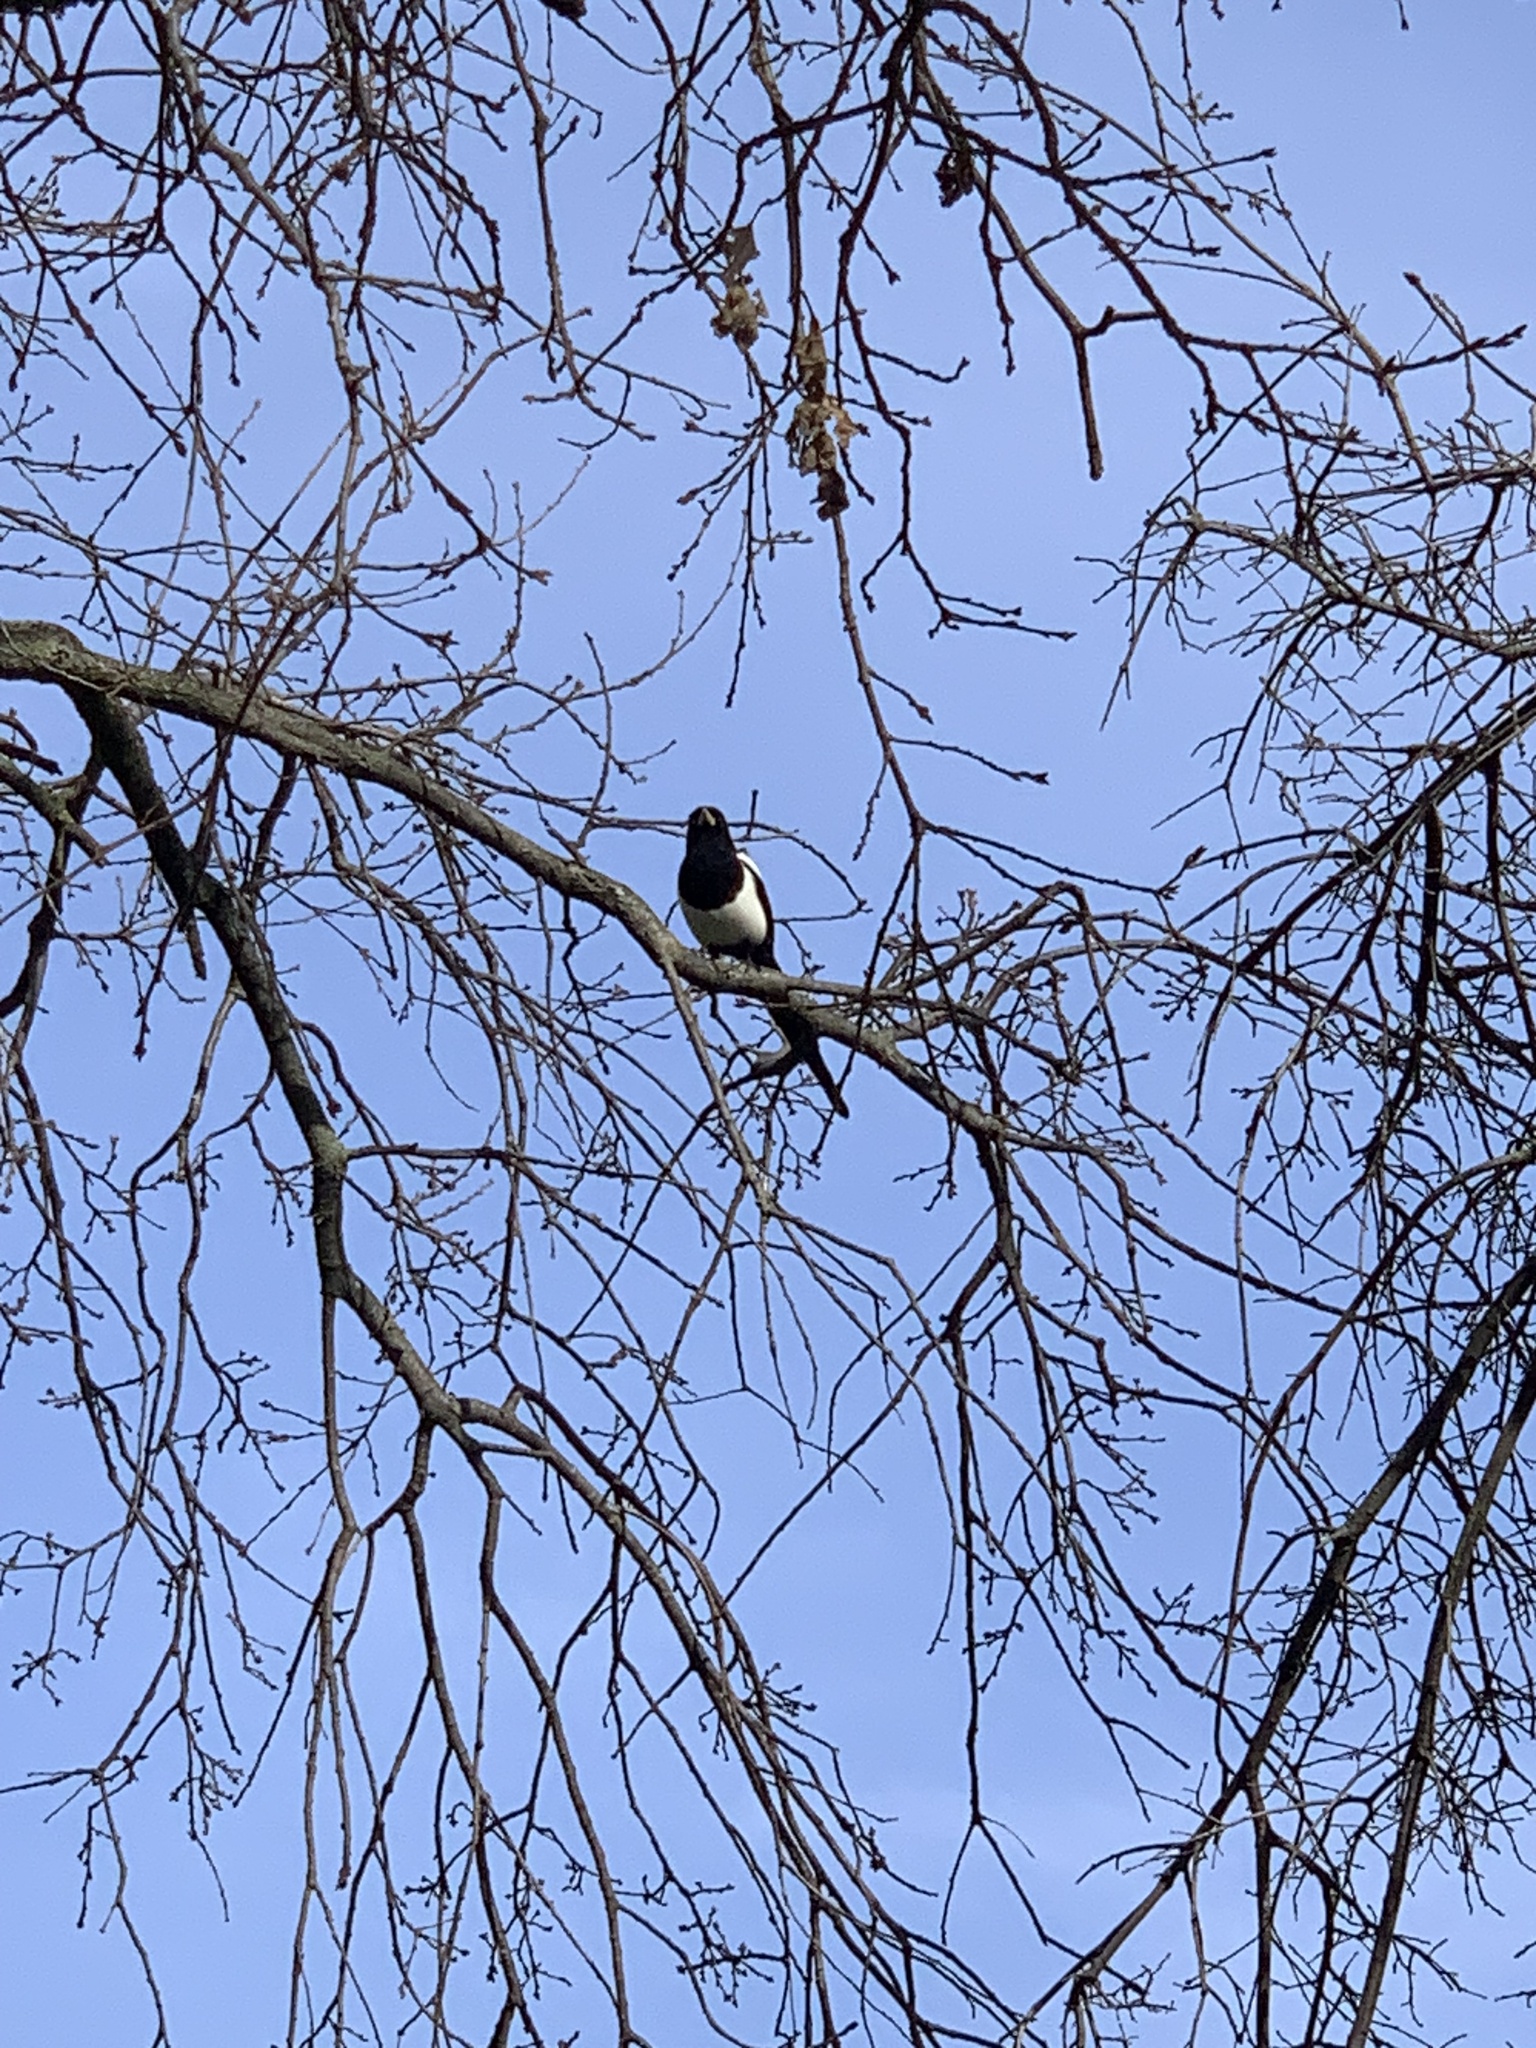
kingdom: Animalia
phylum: Chordata
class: Aves
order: Passeriformes
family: Corvidae
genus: Pica
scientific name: Pica nuttalli
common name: Yellow-billed magpie
